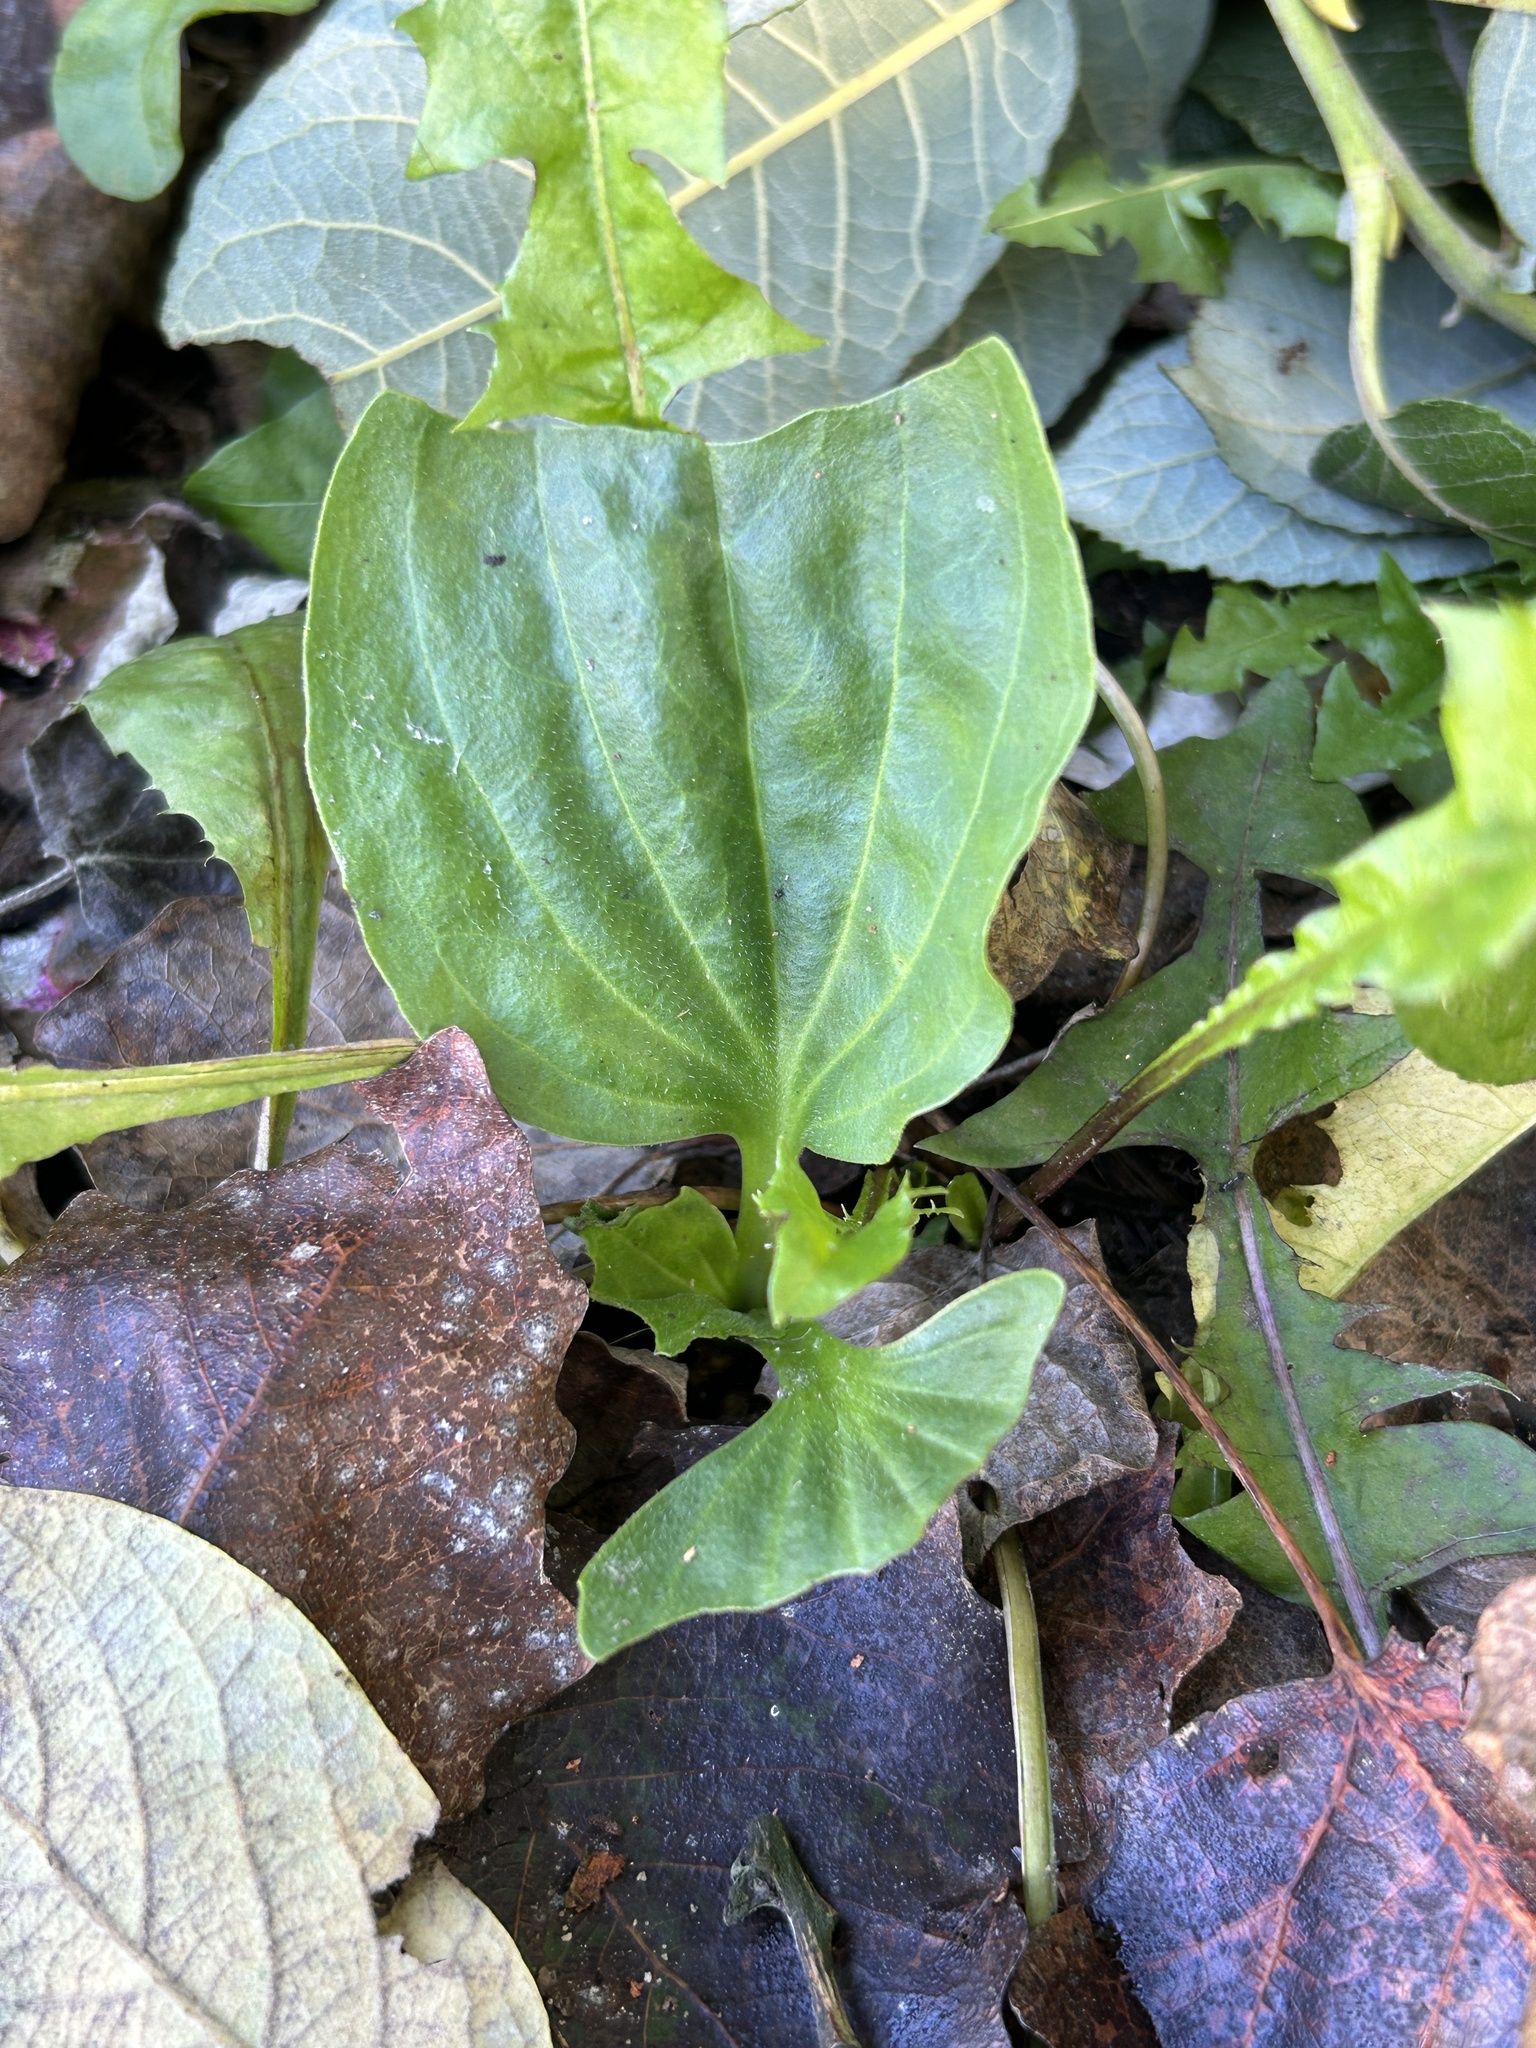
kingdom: Plantae
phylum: Tracheophyta
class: Magnoliopsida
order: Lamiales
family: Plantaginaceae
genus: Plantago
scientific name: Plantago major
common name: Common plantain
